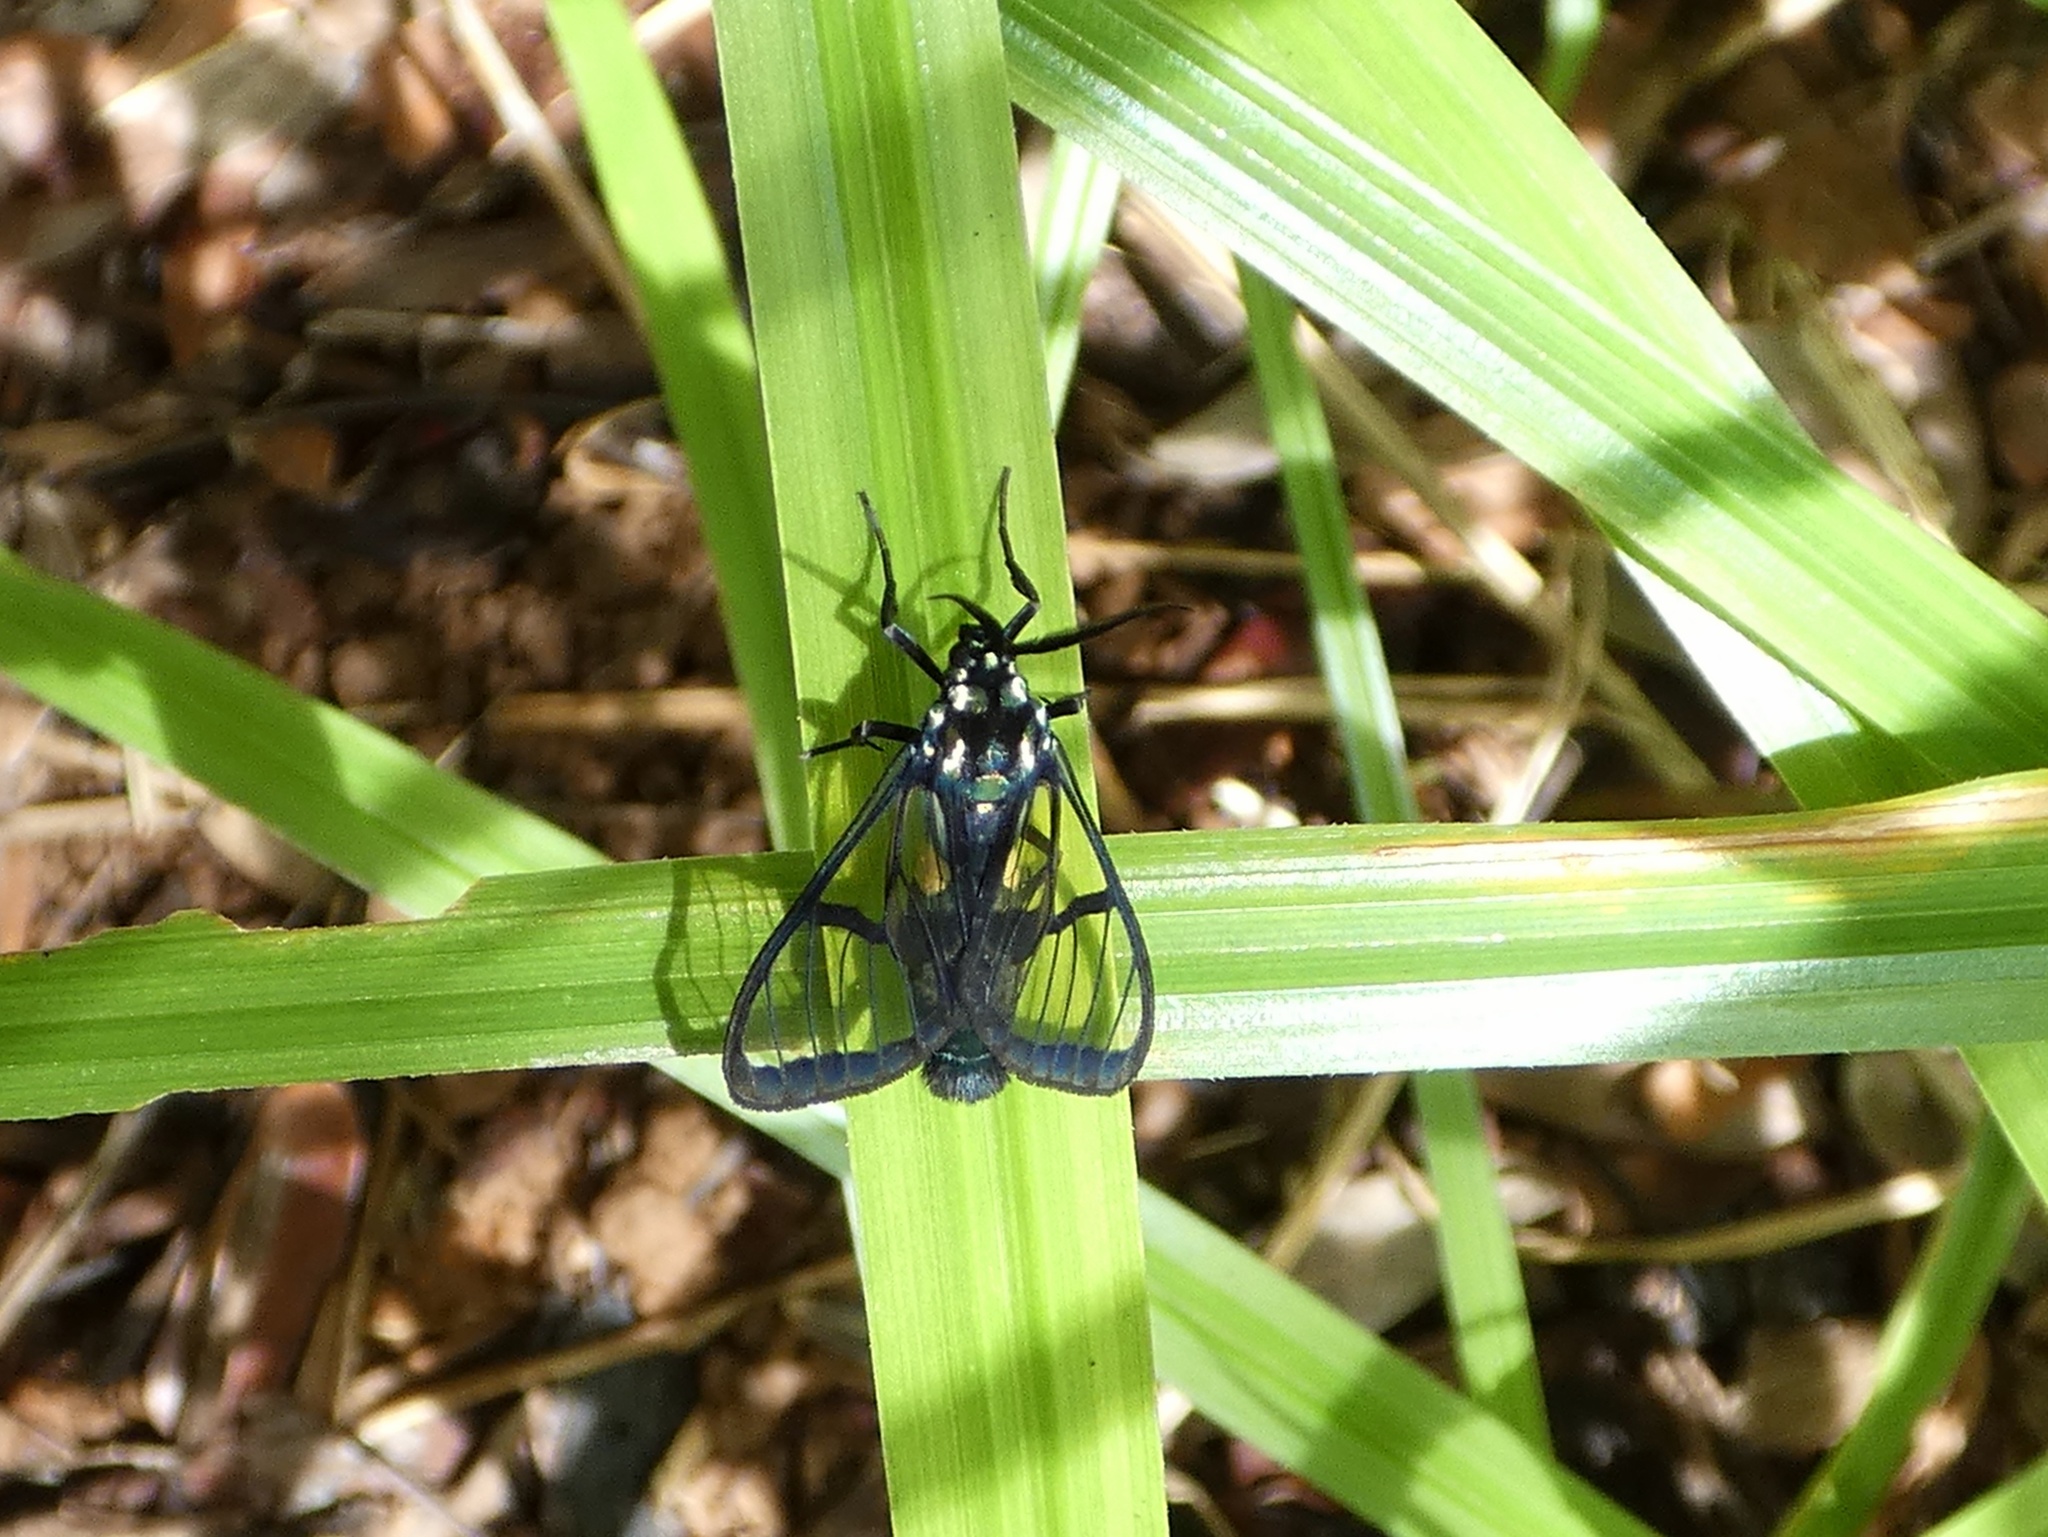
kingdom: Animalia
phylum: Arthropoda
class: Insecta
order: Lepidoptera
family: Erebidae
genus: Trichura
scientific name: Trichura latifascia
